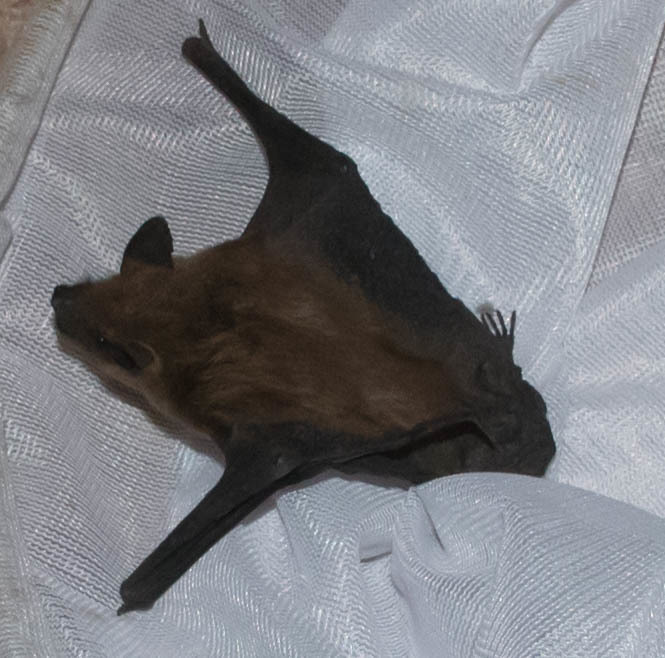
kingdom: Animalia
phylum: Chordata
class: Mammalia
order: Chiroptera
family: Vespertilionidae
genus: Eptesicus
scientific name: Eptesicus fuscus
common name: Big brown bat
